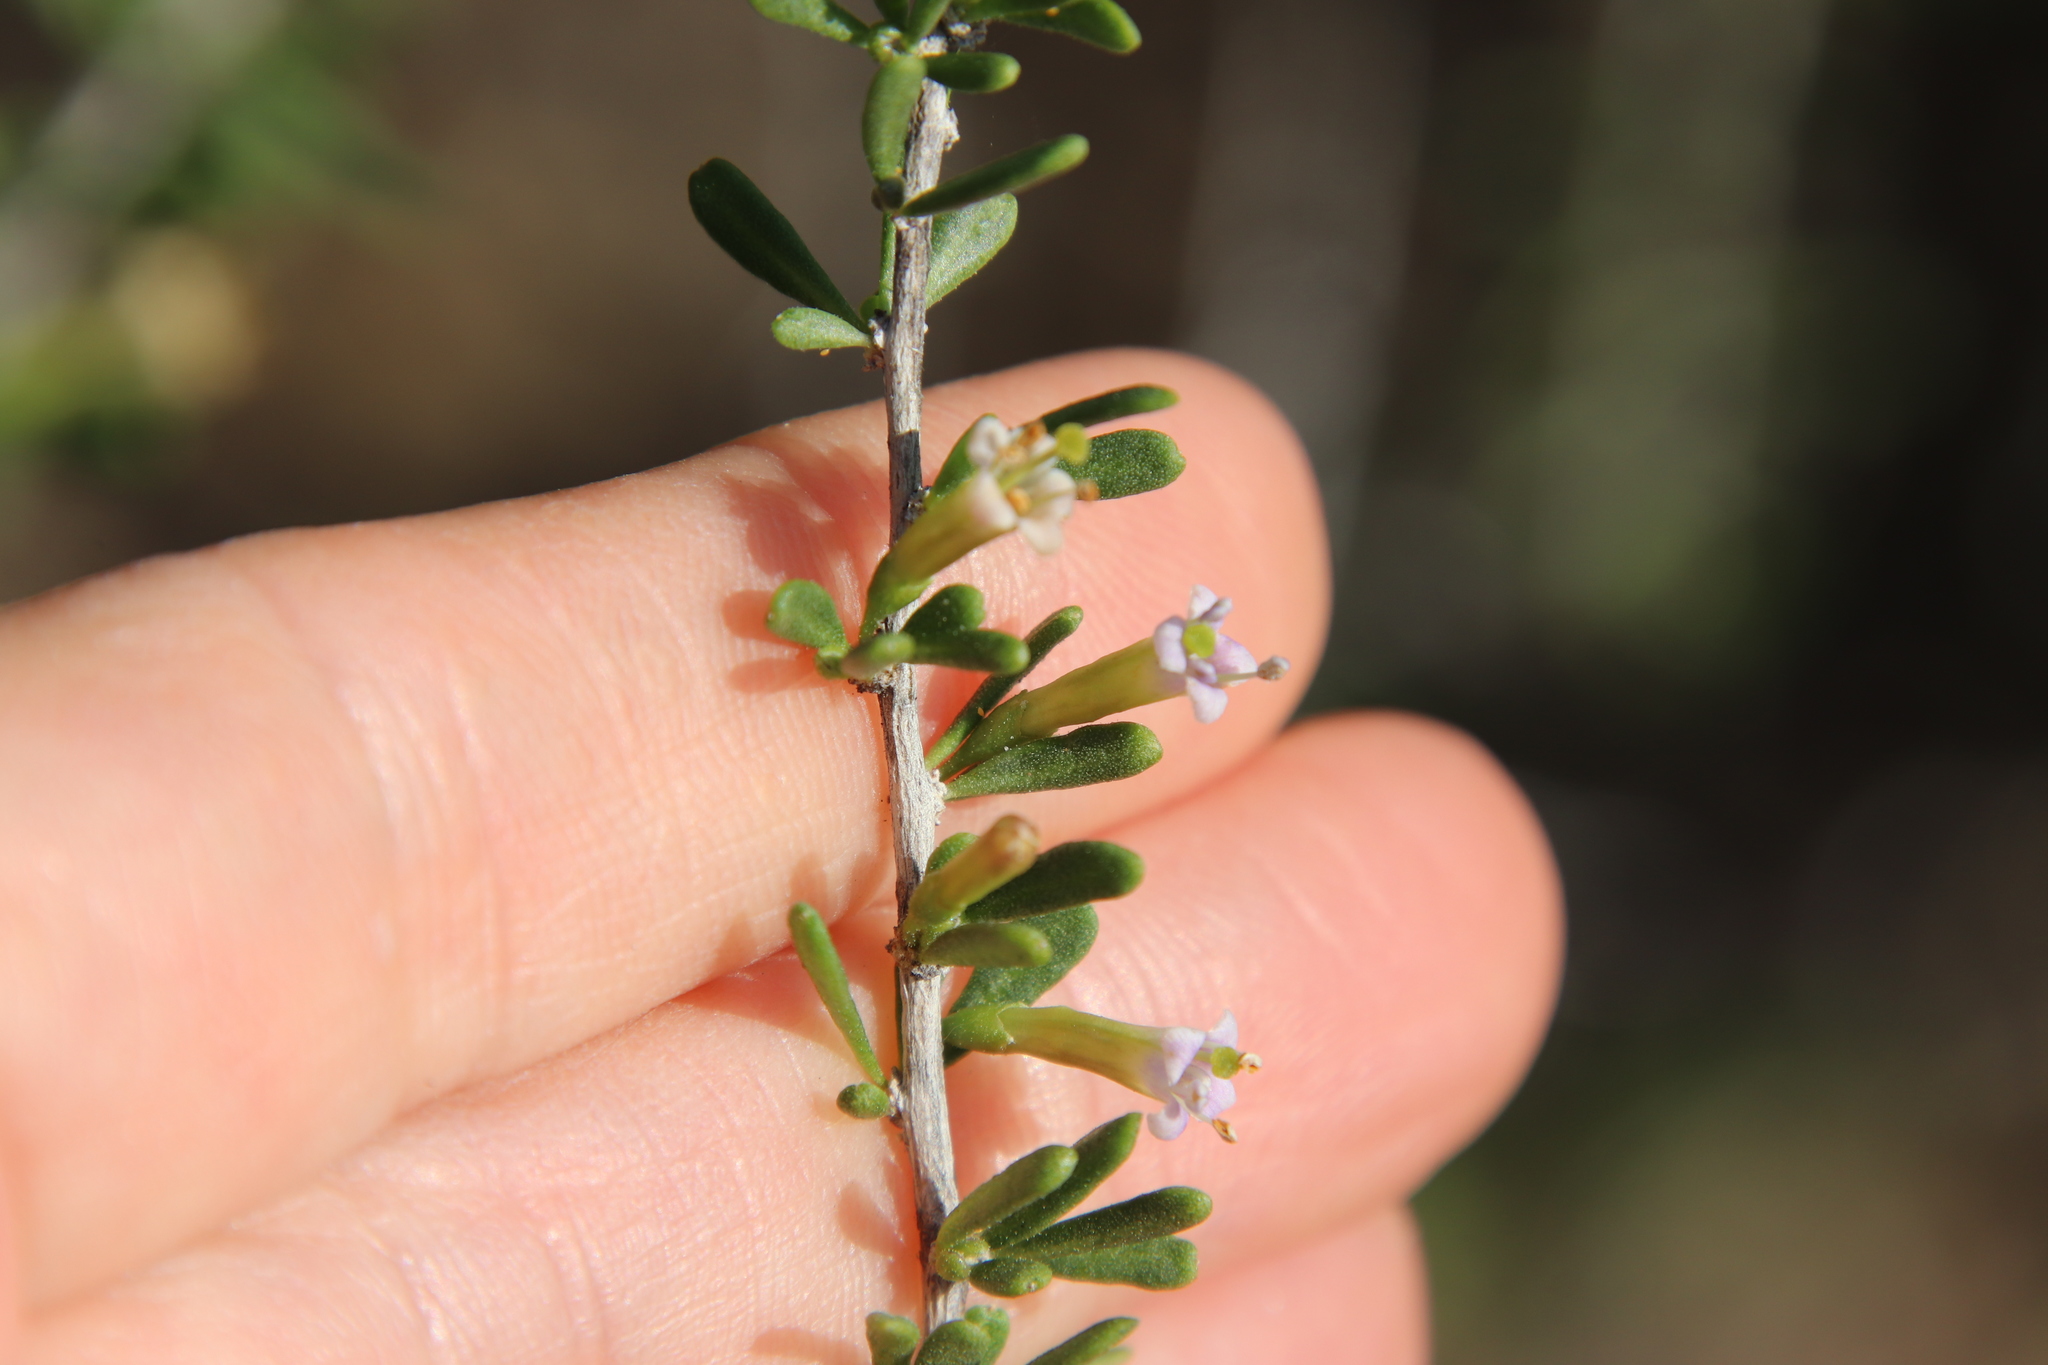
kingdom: Plantae
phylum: Tracheophyta
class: Magnoliopsida
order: Solanales
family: Solanaceae
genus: Lycium
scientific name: Lycium andersonii
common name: Water-jacket
